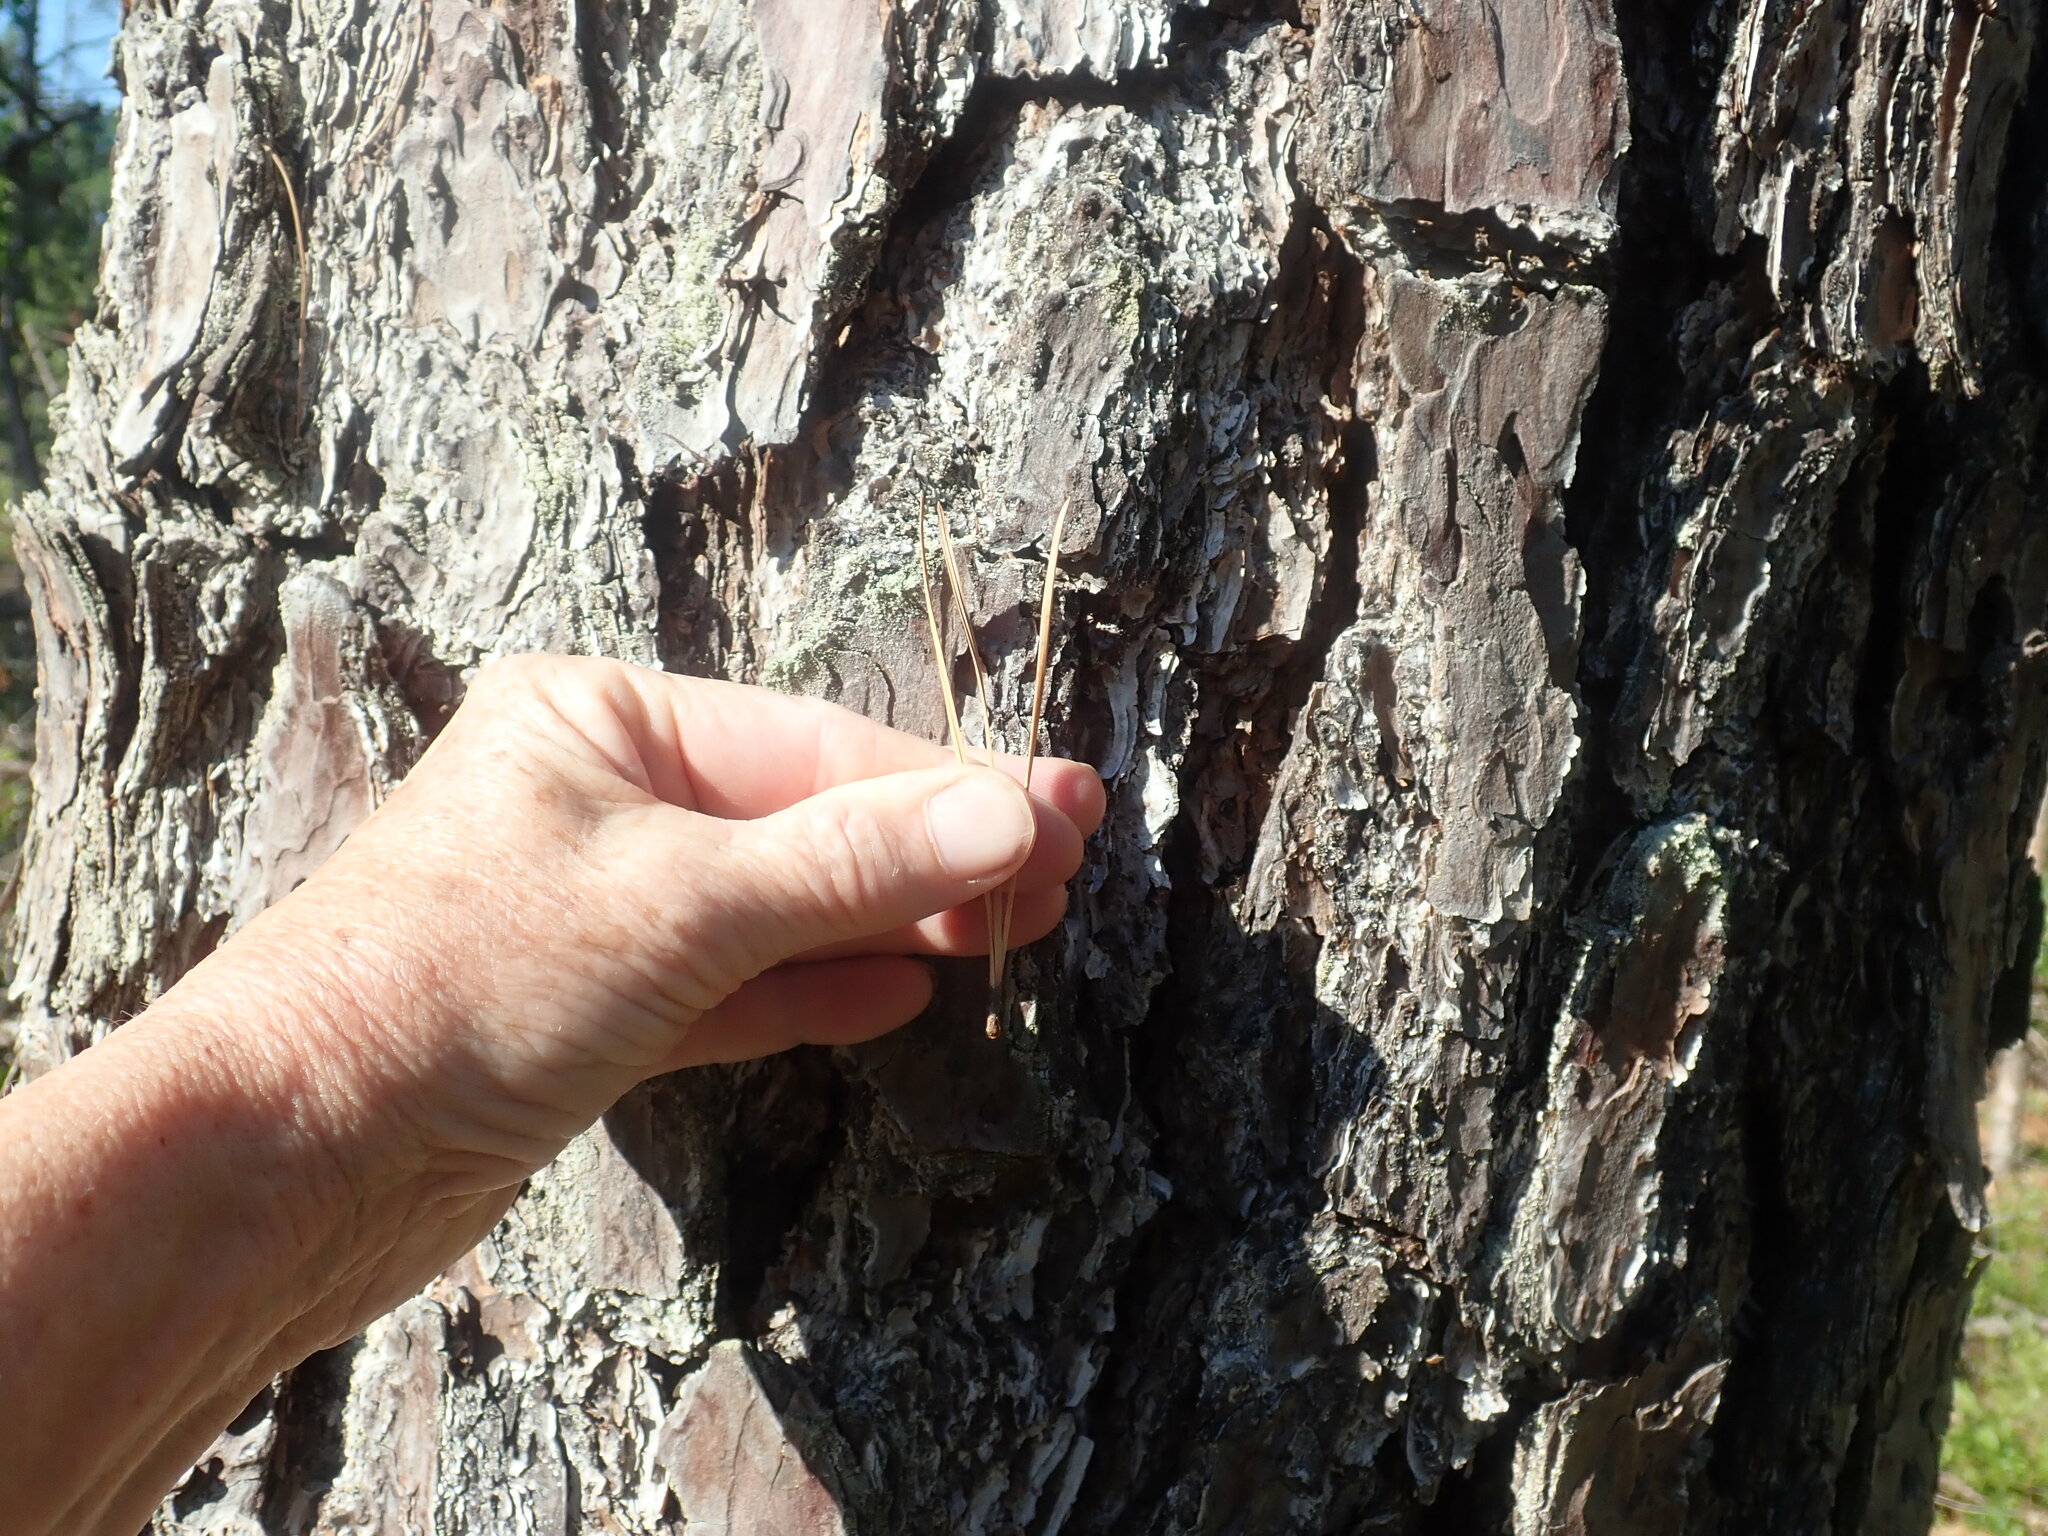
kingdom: Plantae
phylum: Tracheophyta
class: Pinopsida
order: Pinales
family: Pinaceae
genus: Pinus
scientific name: Pinus rigida
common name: Pitch pine
